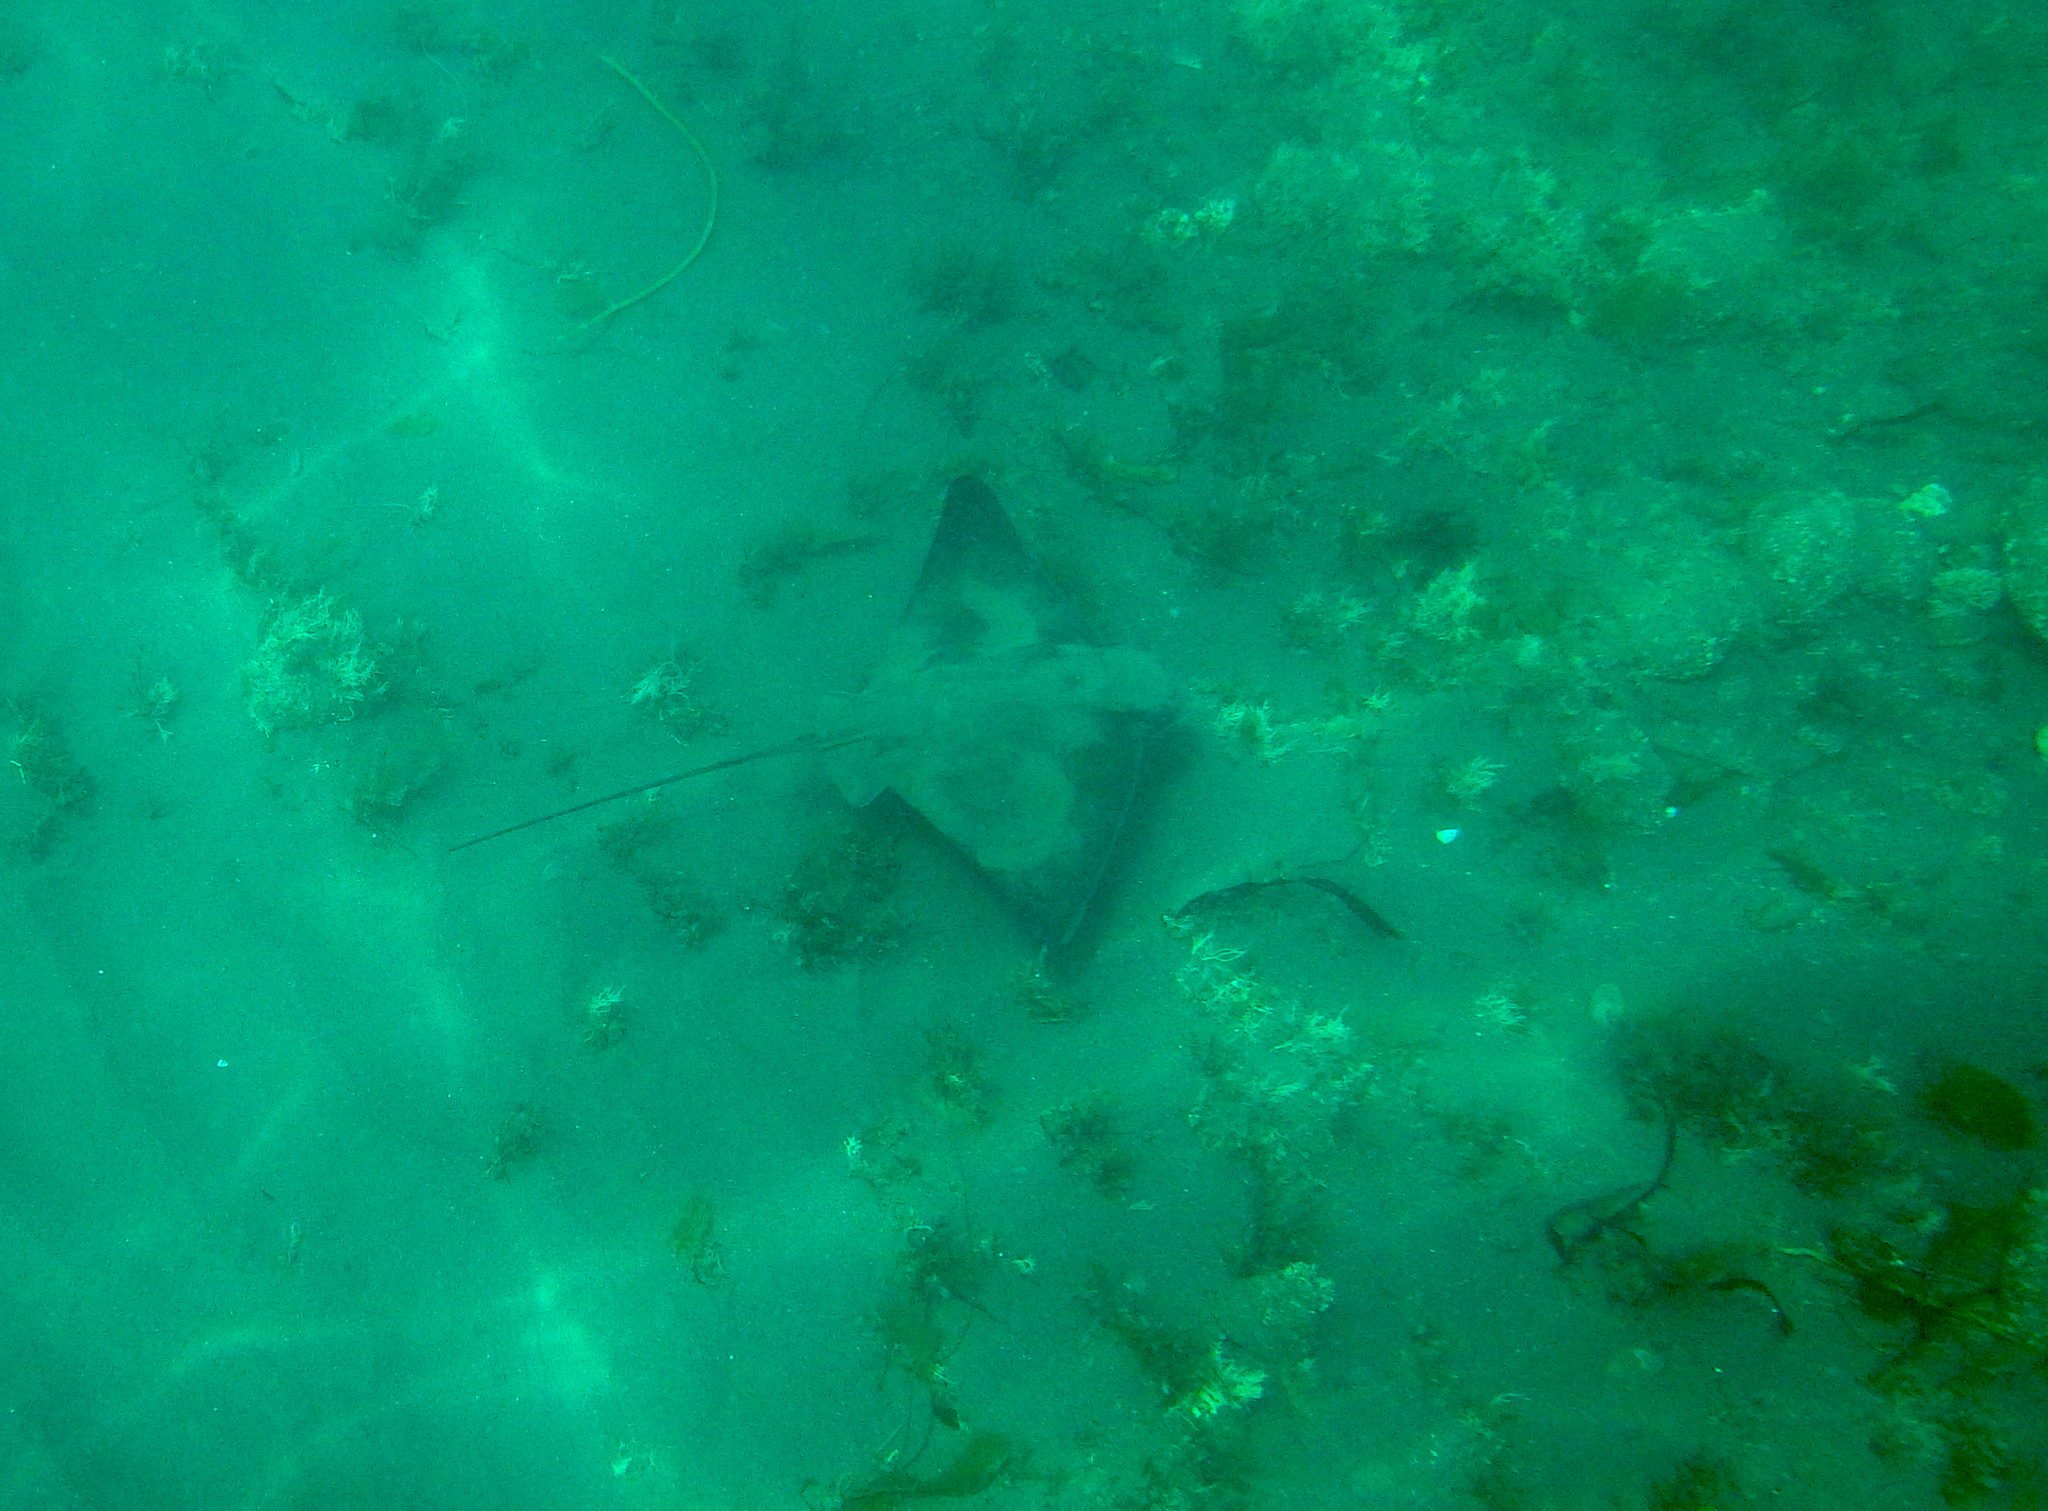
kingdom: Animalia
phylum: Chordata
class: Elasmobranchii
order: Myliobatiformes
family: Myliobatidae
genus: Myliobatis
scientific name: Myliobatis californica
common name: Bat ray
